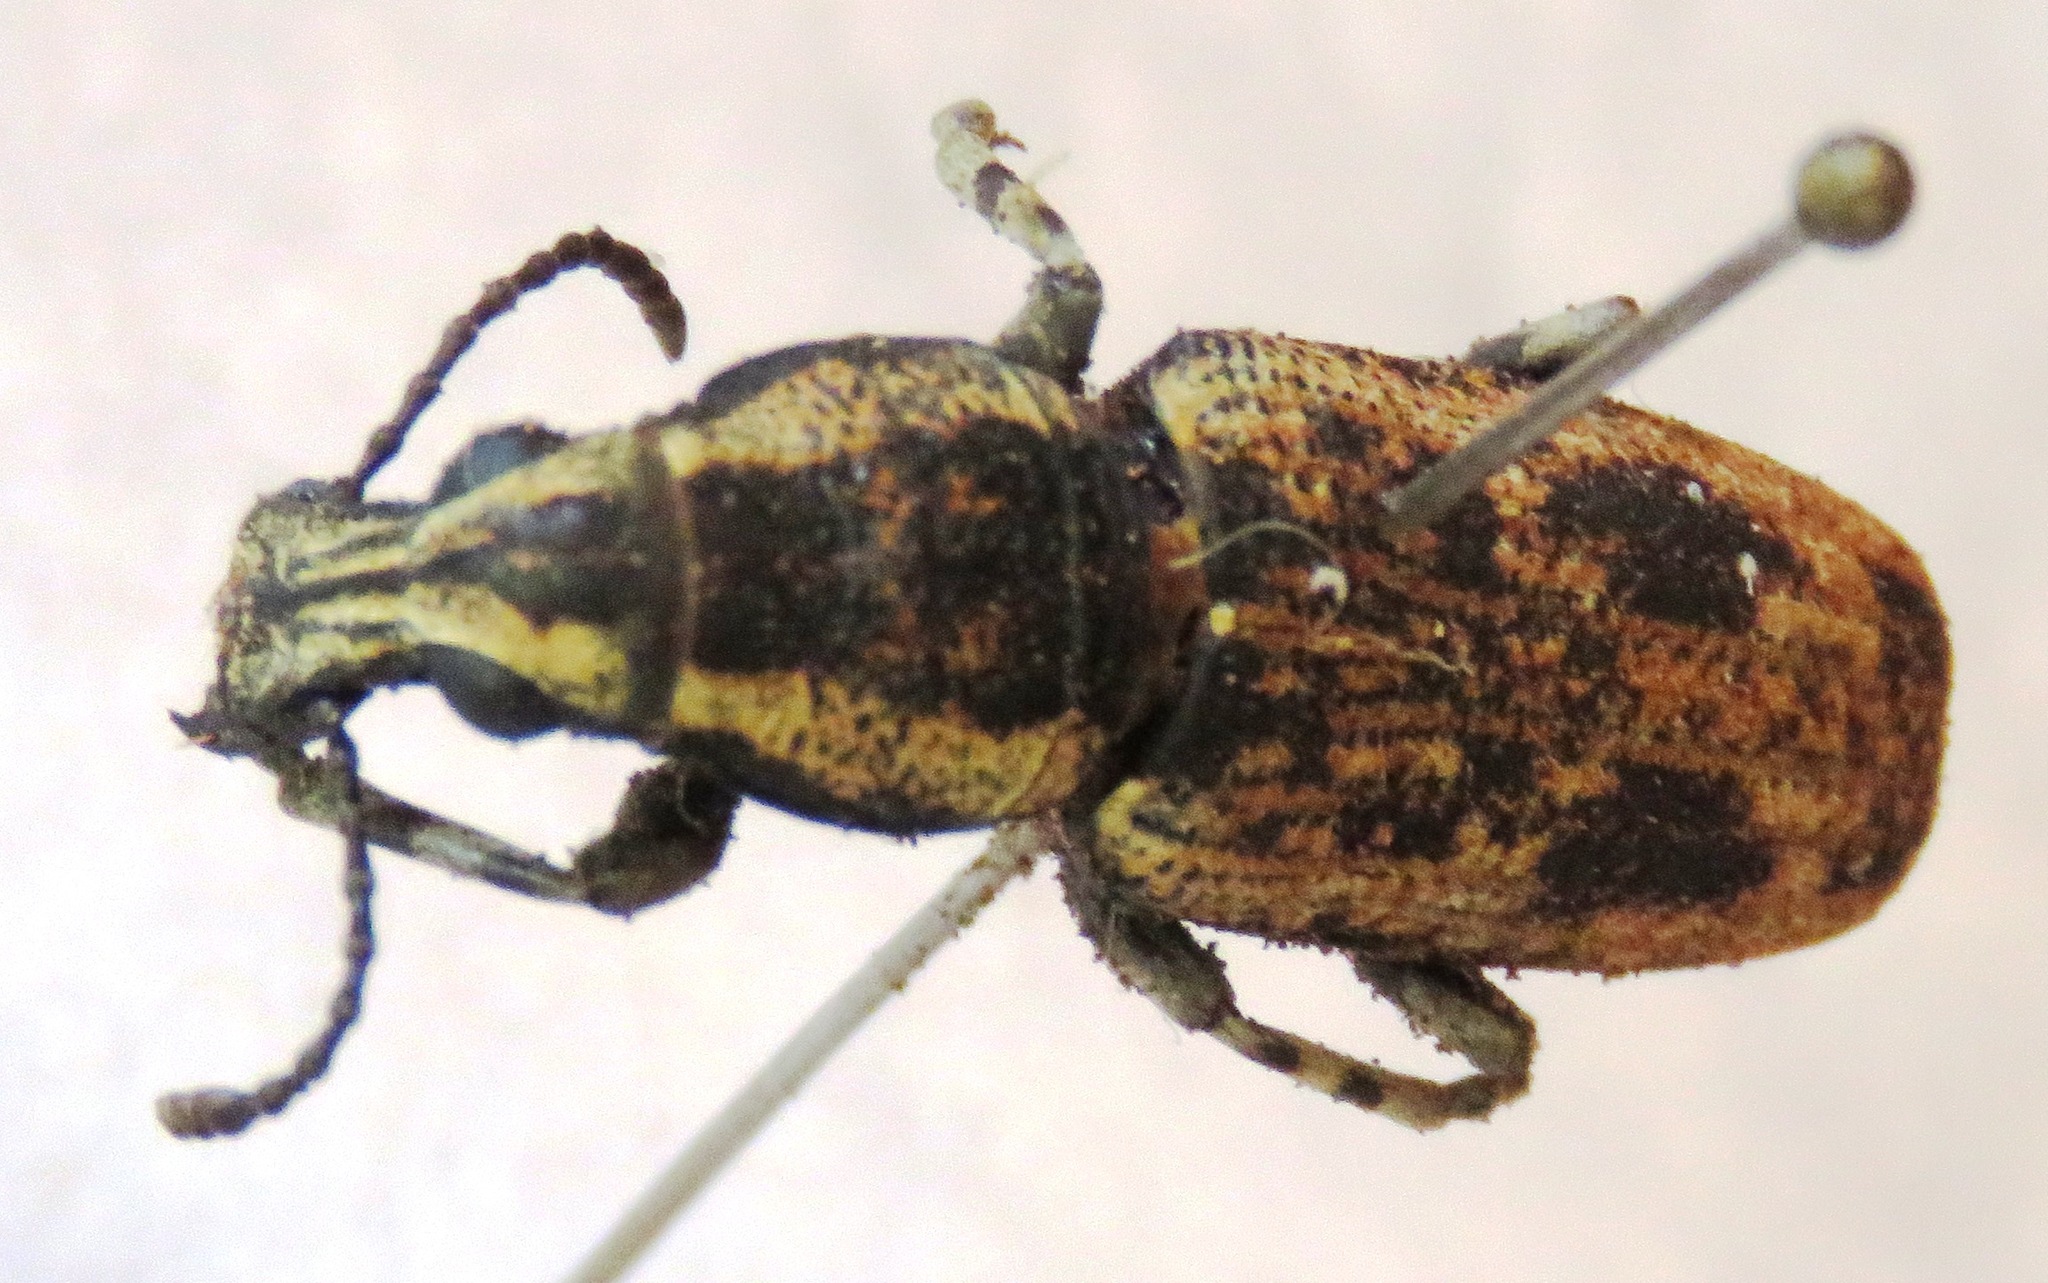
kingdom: Animalia
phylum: Arthropoda
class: Insecta
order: Coleoptera
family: Anthribidae
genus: Ptychoderes
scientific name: Ptychoderes bivittatus
